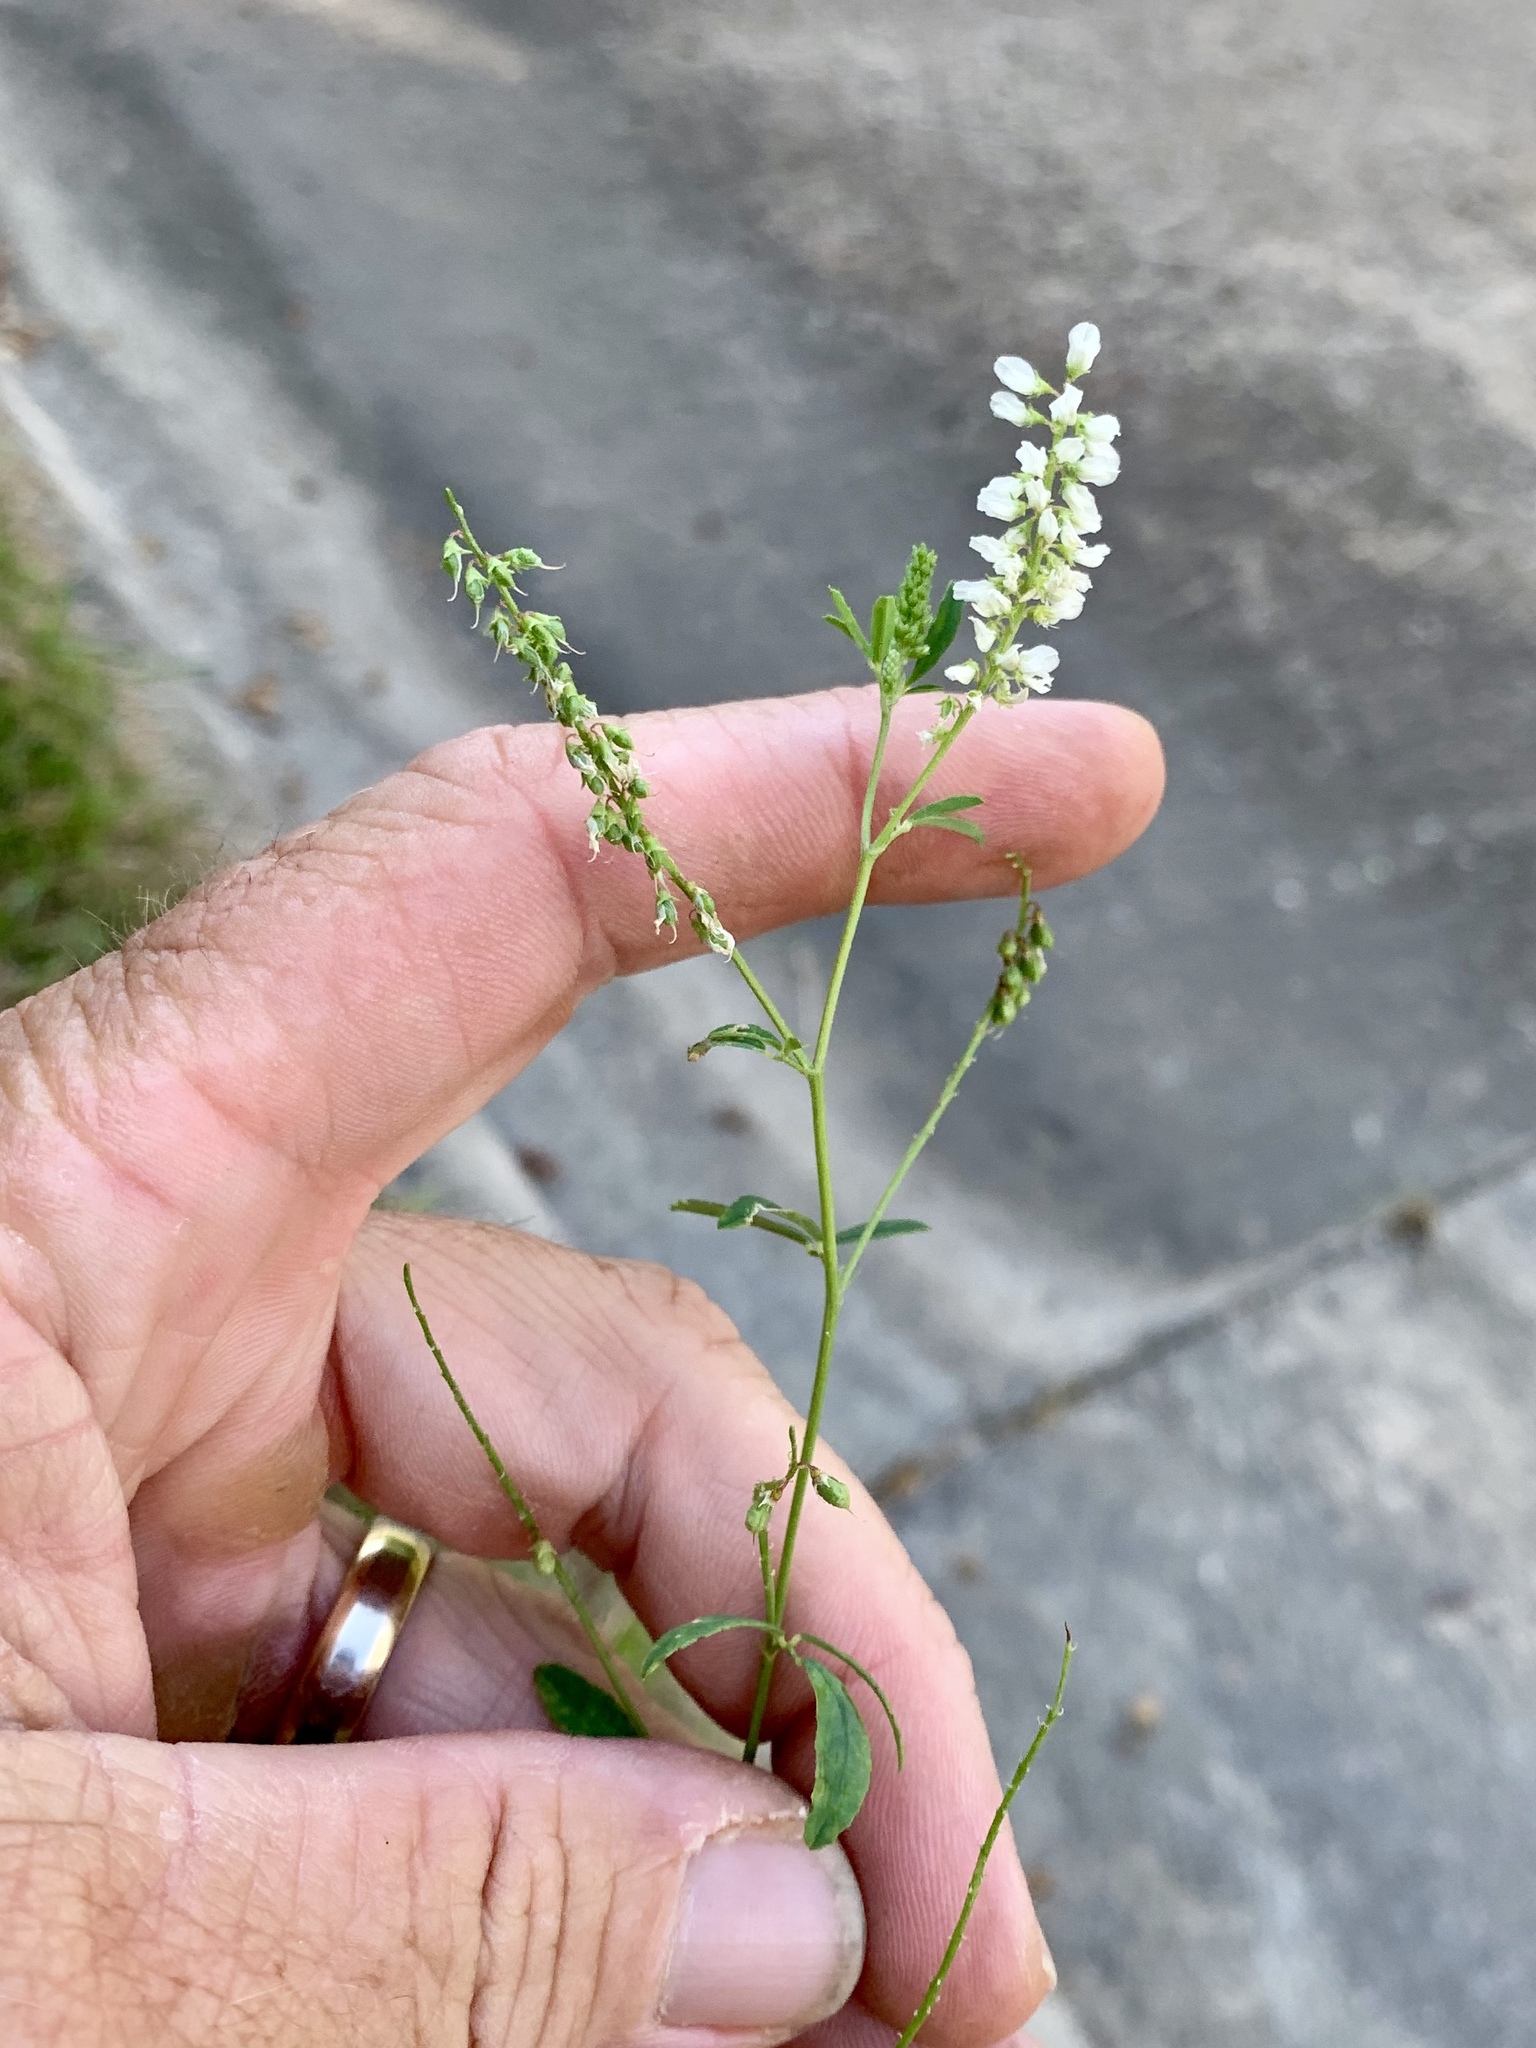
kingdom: Plantae
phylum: Tracheophyta
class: Magnoliopsida
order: Fabales
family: Fabaceae
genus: Melilotus
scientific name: Melilotus albus
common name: White melilot
